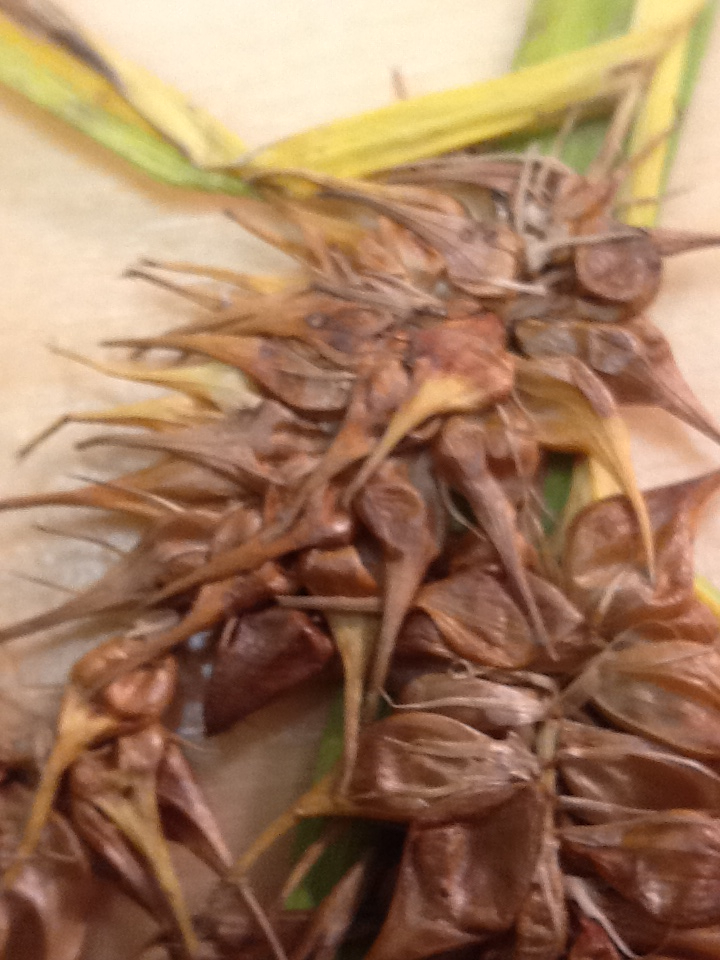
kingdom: Plantae
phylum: Tracheophyta
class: Liliopsida
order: Poales
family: Cyperaceae
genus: Carex
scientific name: Carex flava
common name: Large yellow-sedge
